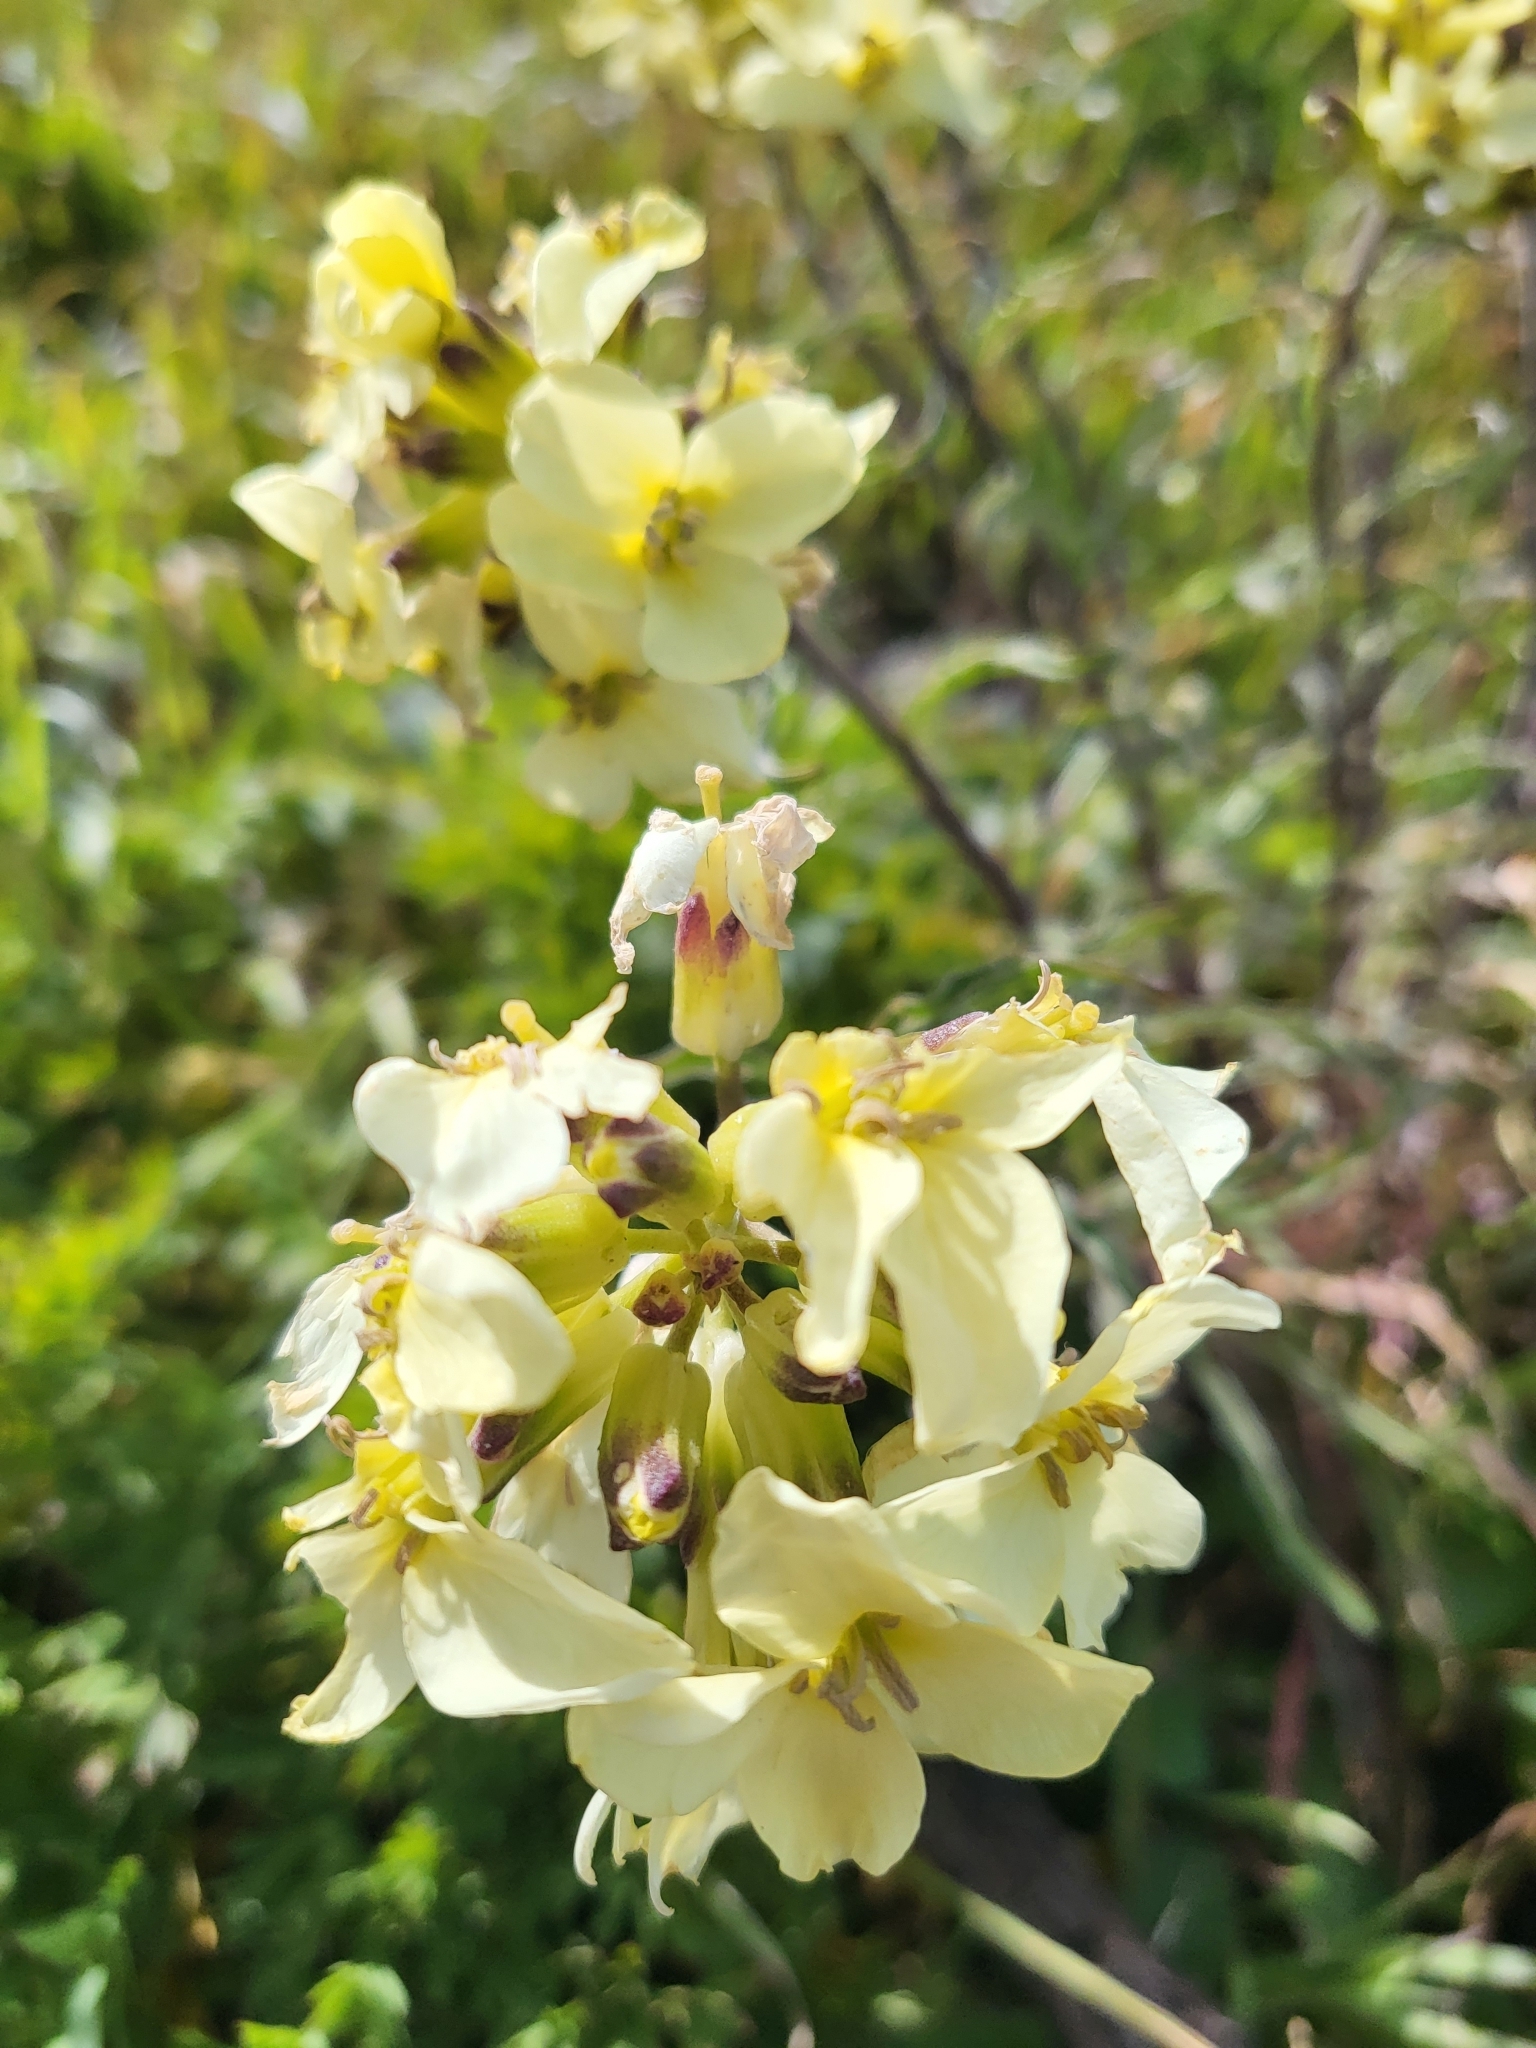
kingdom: Plantae
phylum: Tracheophyta
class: Magnoliopsida
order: Brassicales
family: Brassicaceae
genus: Erysimum
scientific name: Erysimum franciscanum
